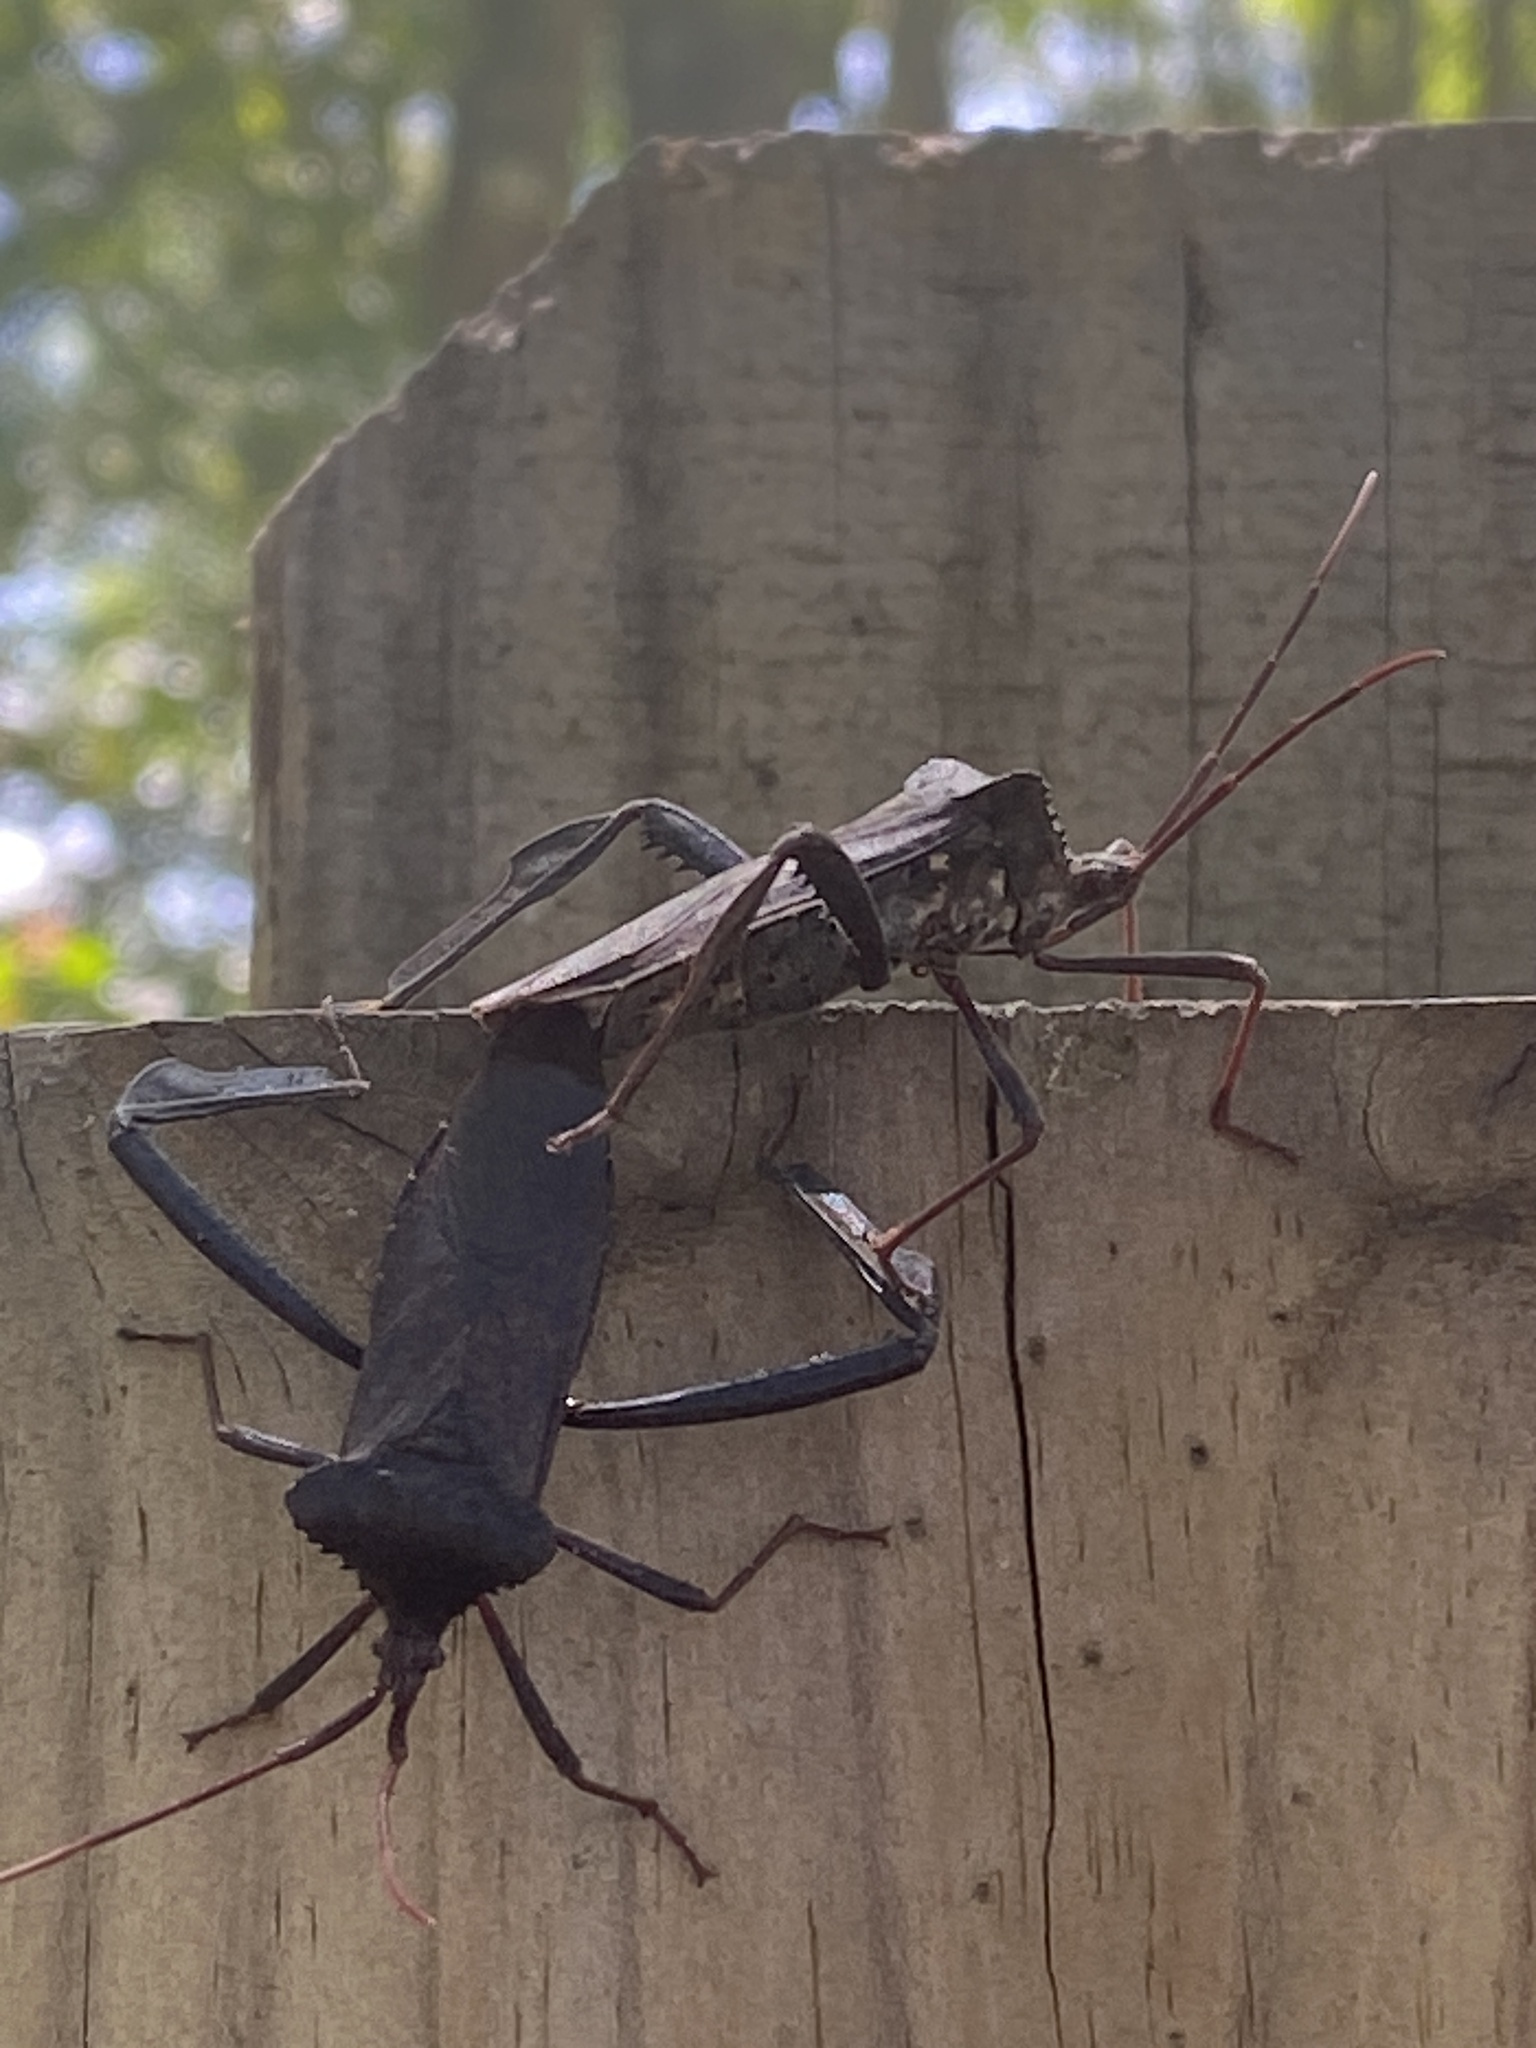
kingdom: Animalia
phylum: Arthropoda
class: Insecta
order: Hemiptera
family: Coreidae
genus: Acanthocephala
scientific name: Acanthocephala declivis
